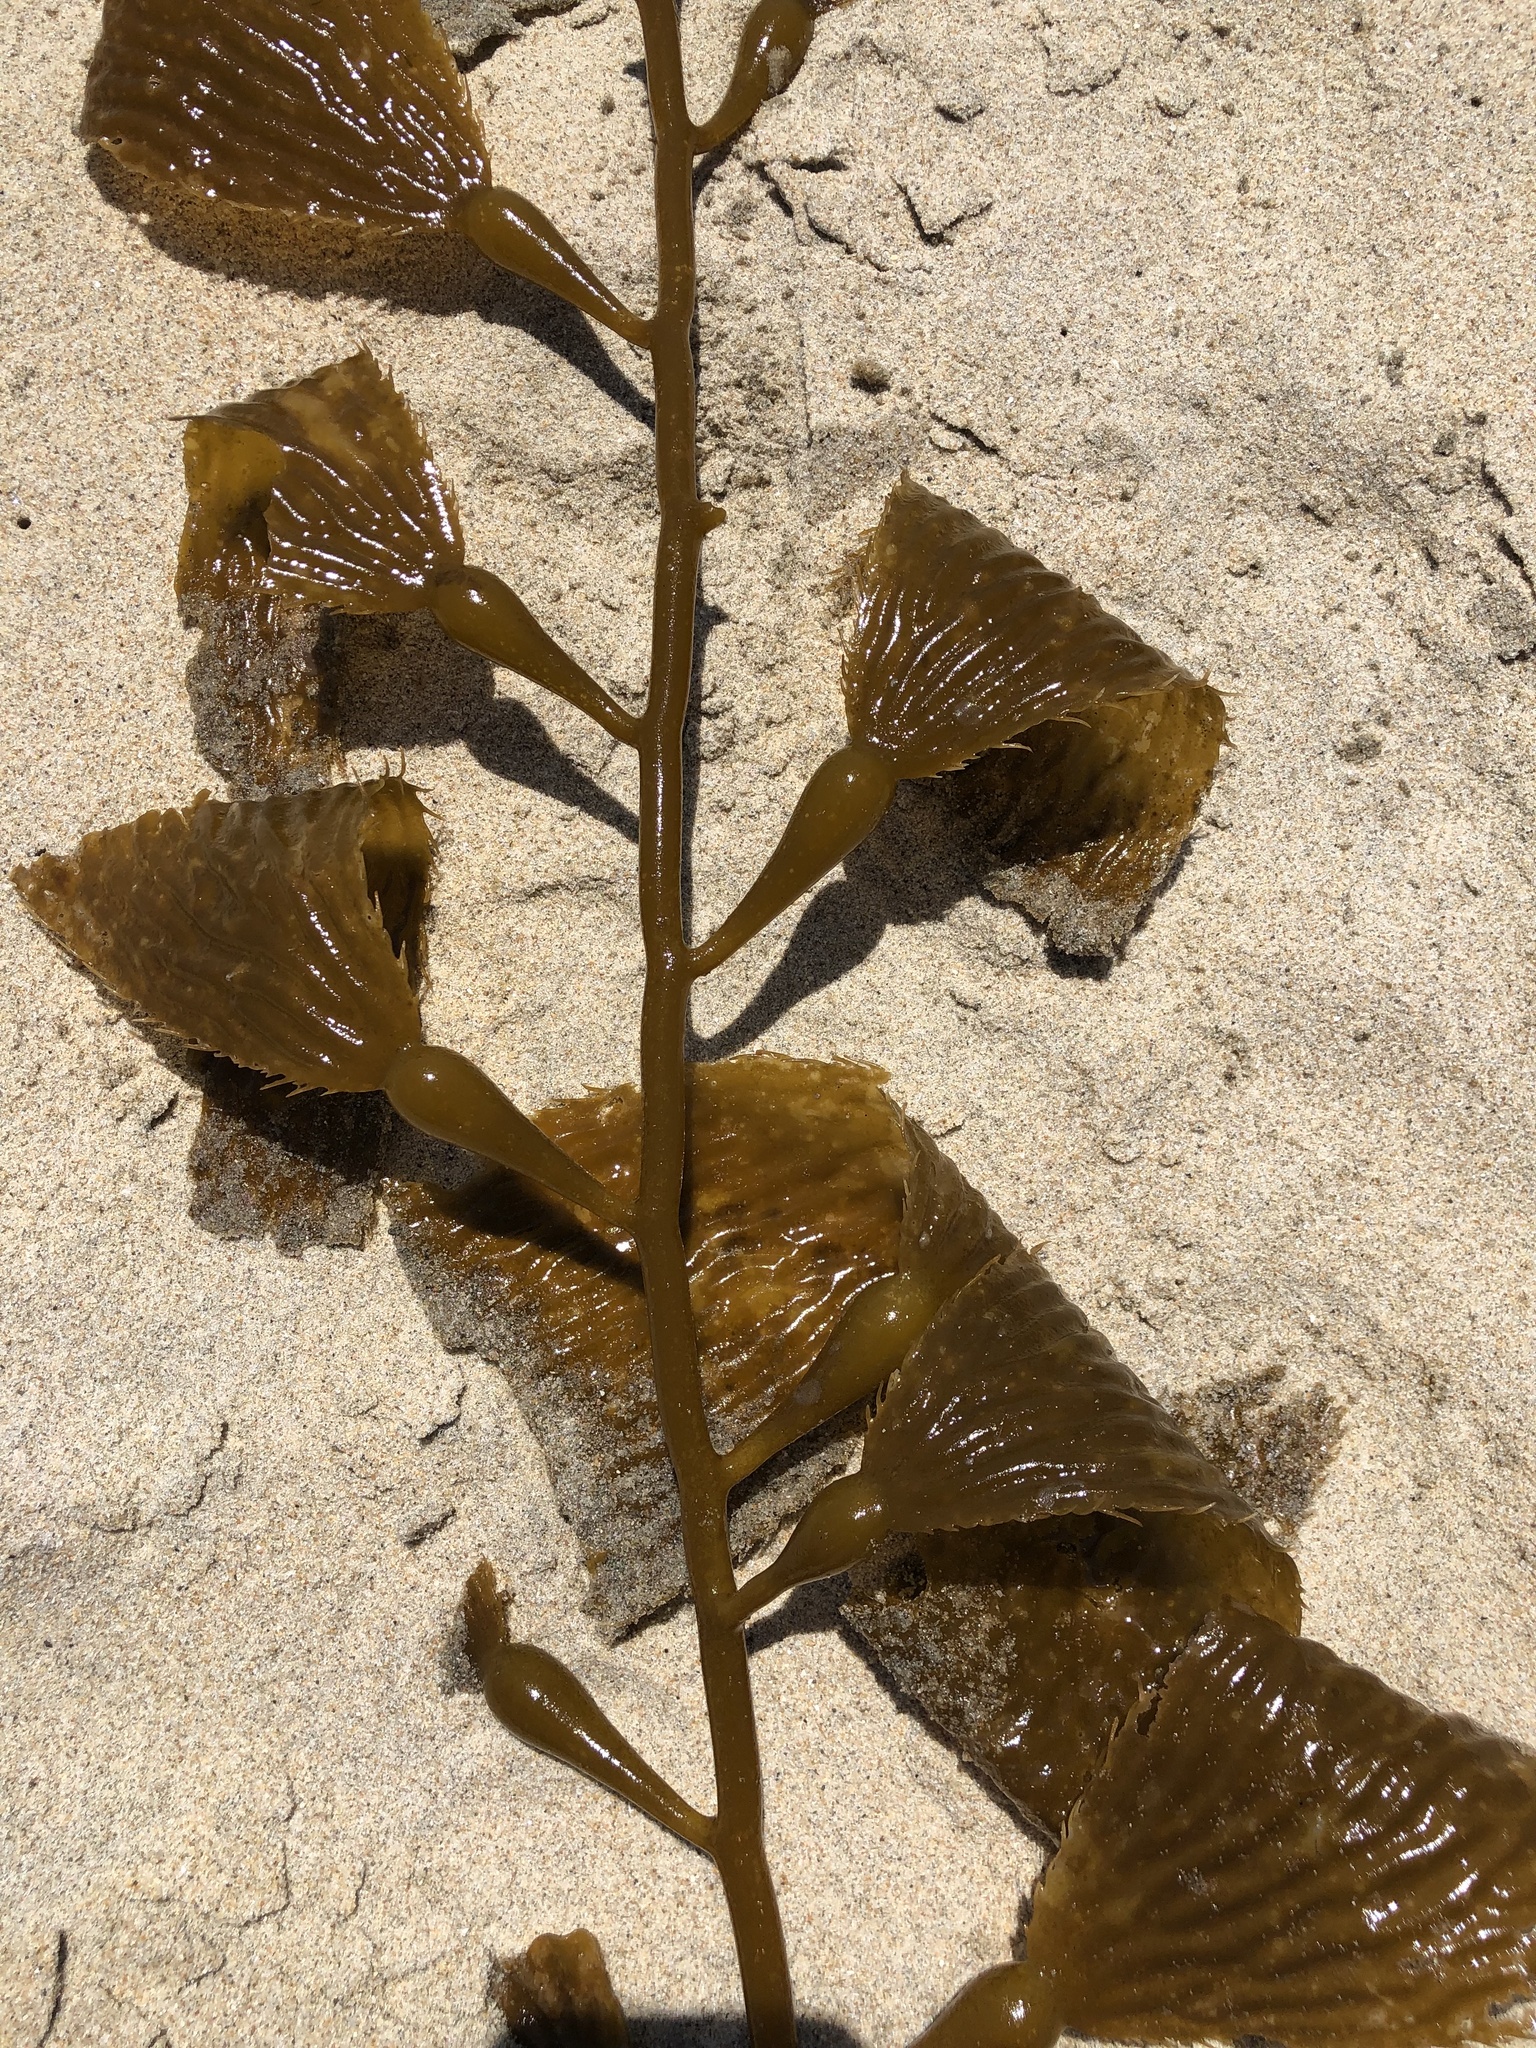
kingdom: Chromista
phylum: Ochrophyta
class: Phaeophyceae
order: Laminariales
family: Laminariaceae
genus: Macrocystis
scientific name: Macrocystis pyrifera
